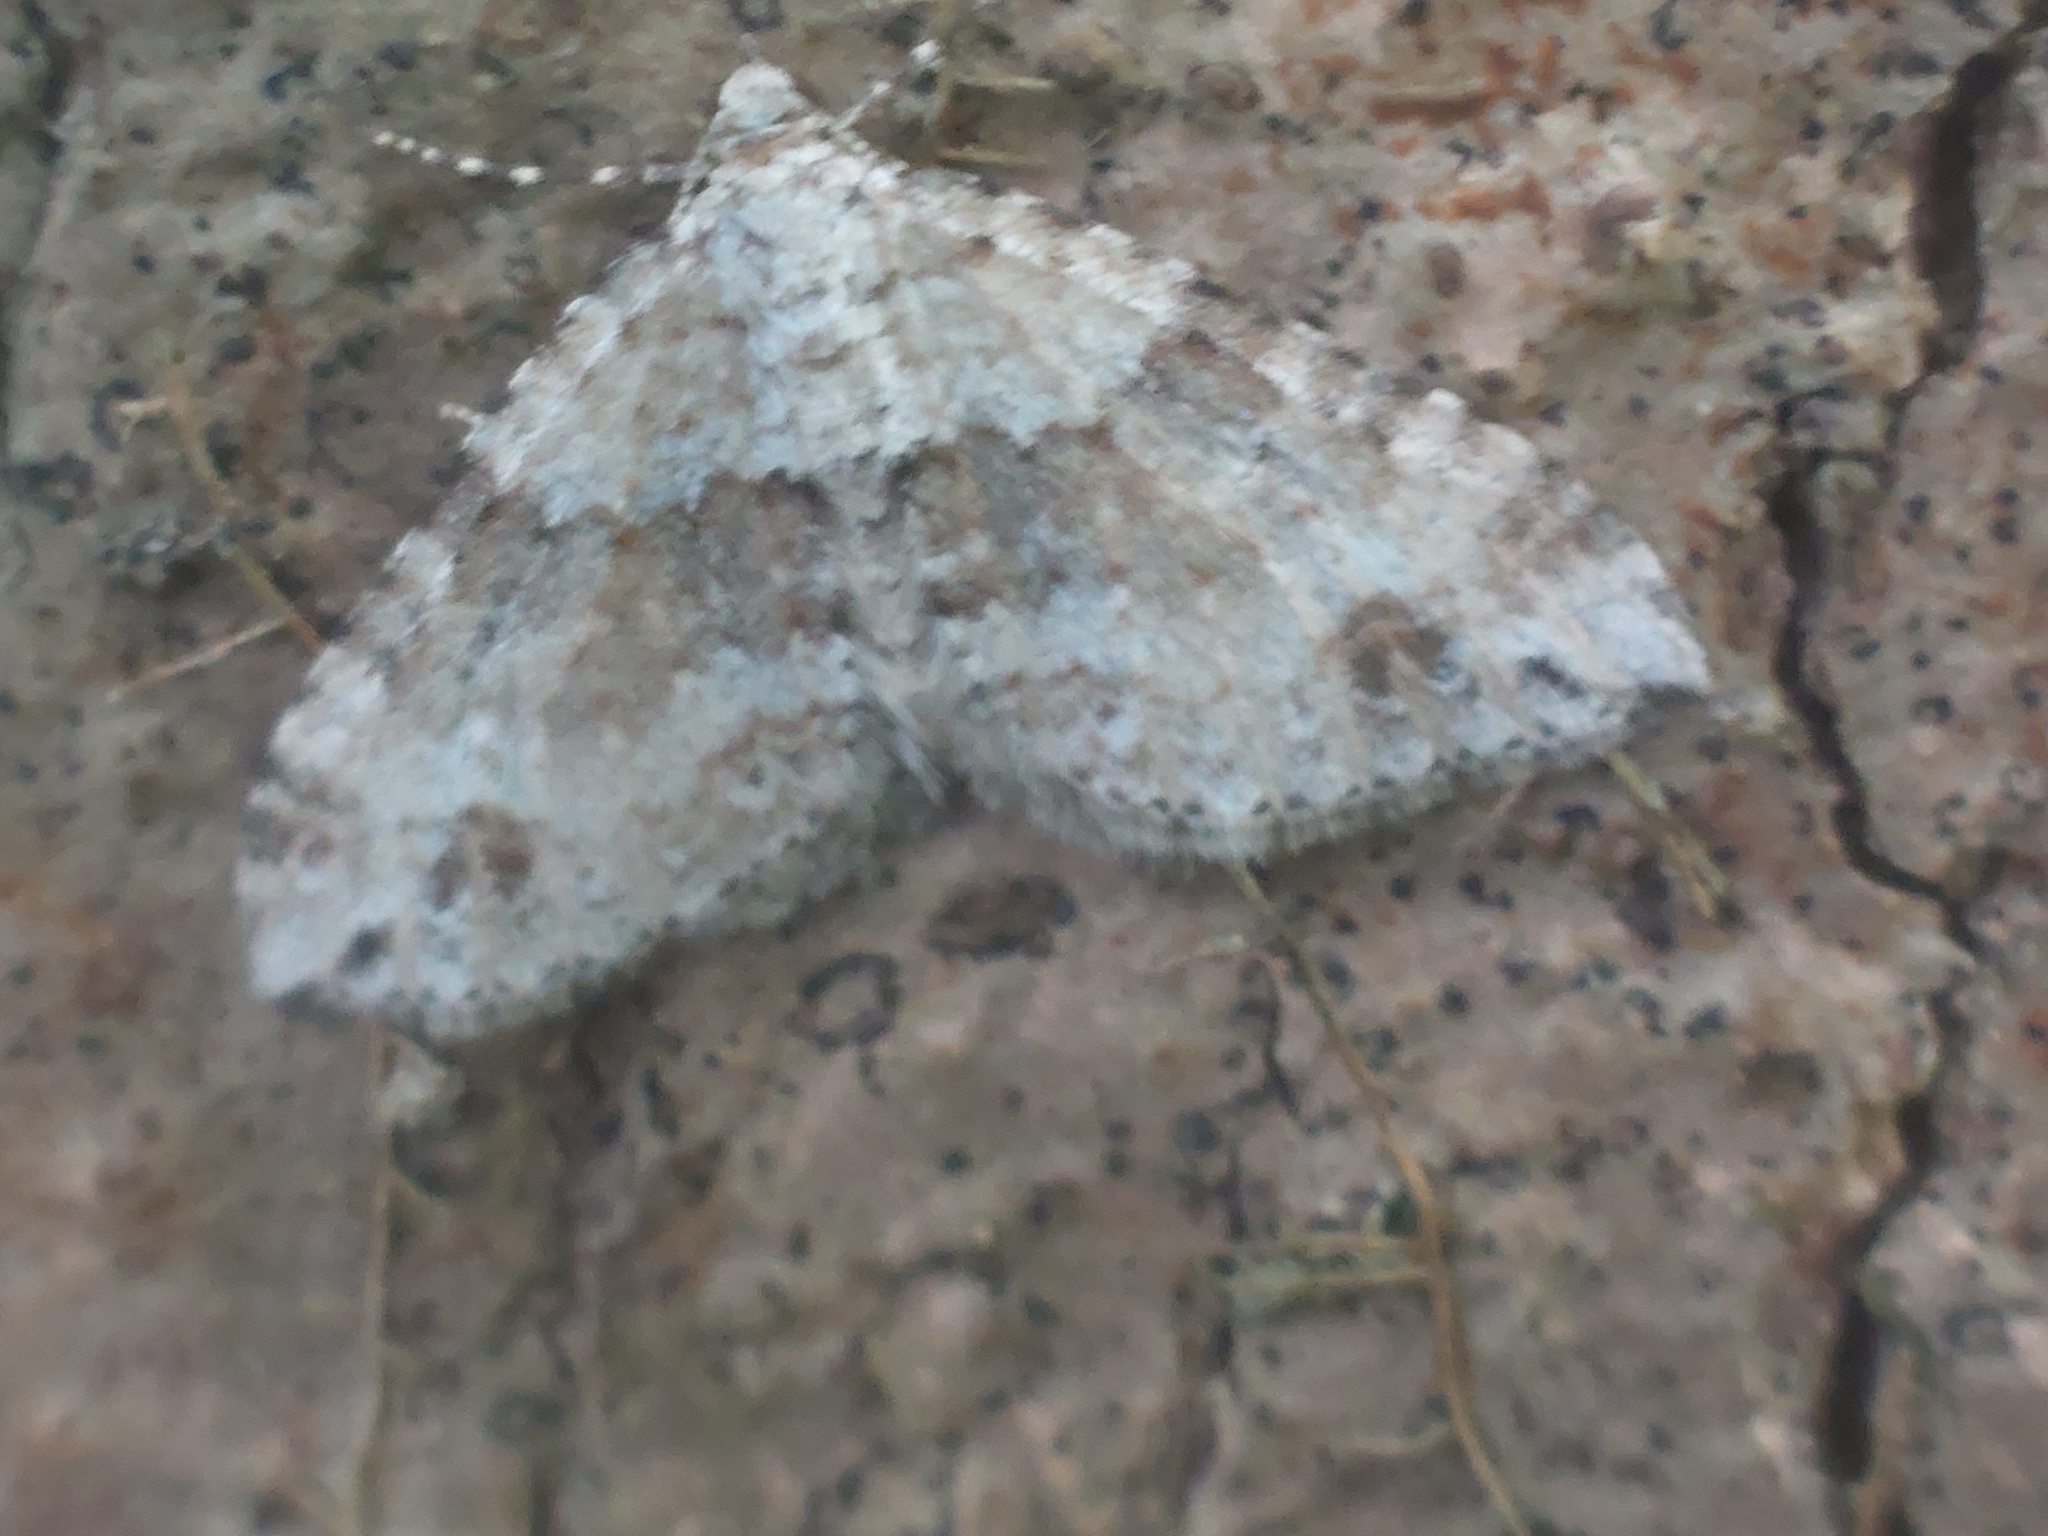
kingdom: Animalia
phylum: Arthropoda
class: Insecta
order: Lepidoptera
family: Geometridae
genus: Perizoma
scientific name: Perizoma didymata
